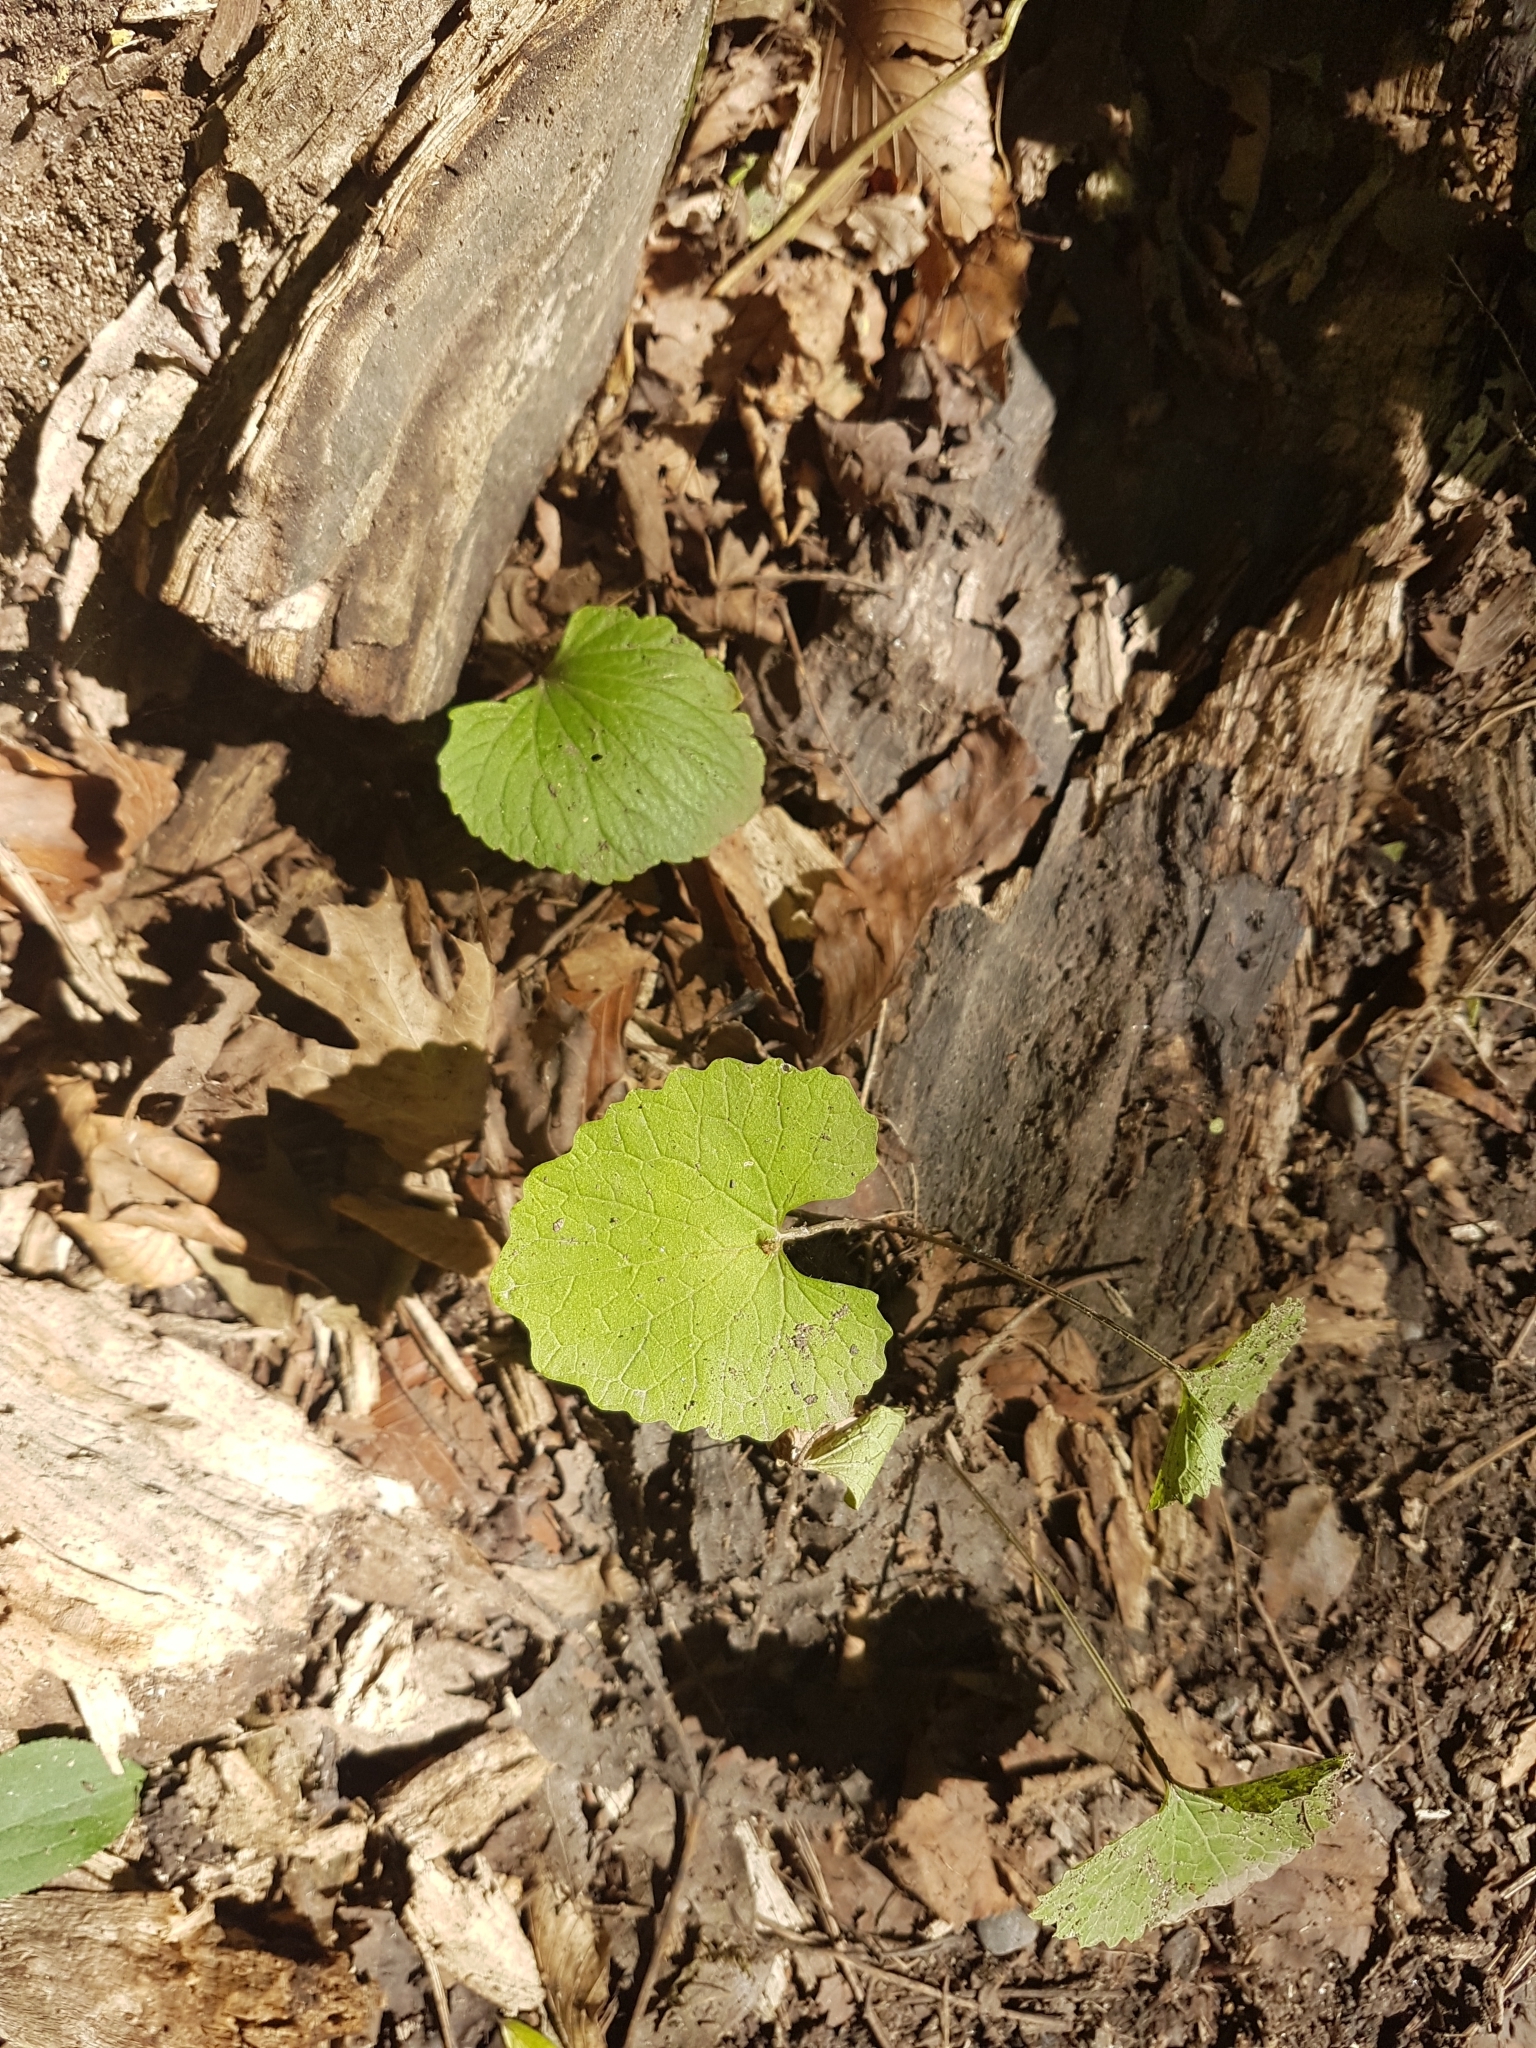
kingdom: Plantae
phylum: Tracheophyta
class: Magnoliopsida
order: Brassicales
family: Brassicaceae
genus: Alliaria
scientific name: Alliaria petiolata
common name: Garlic mustard
